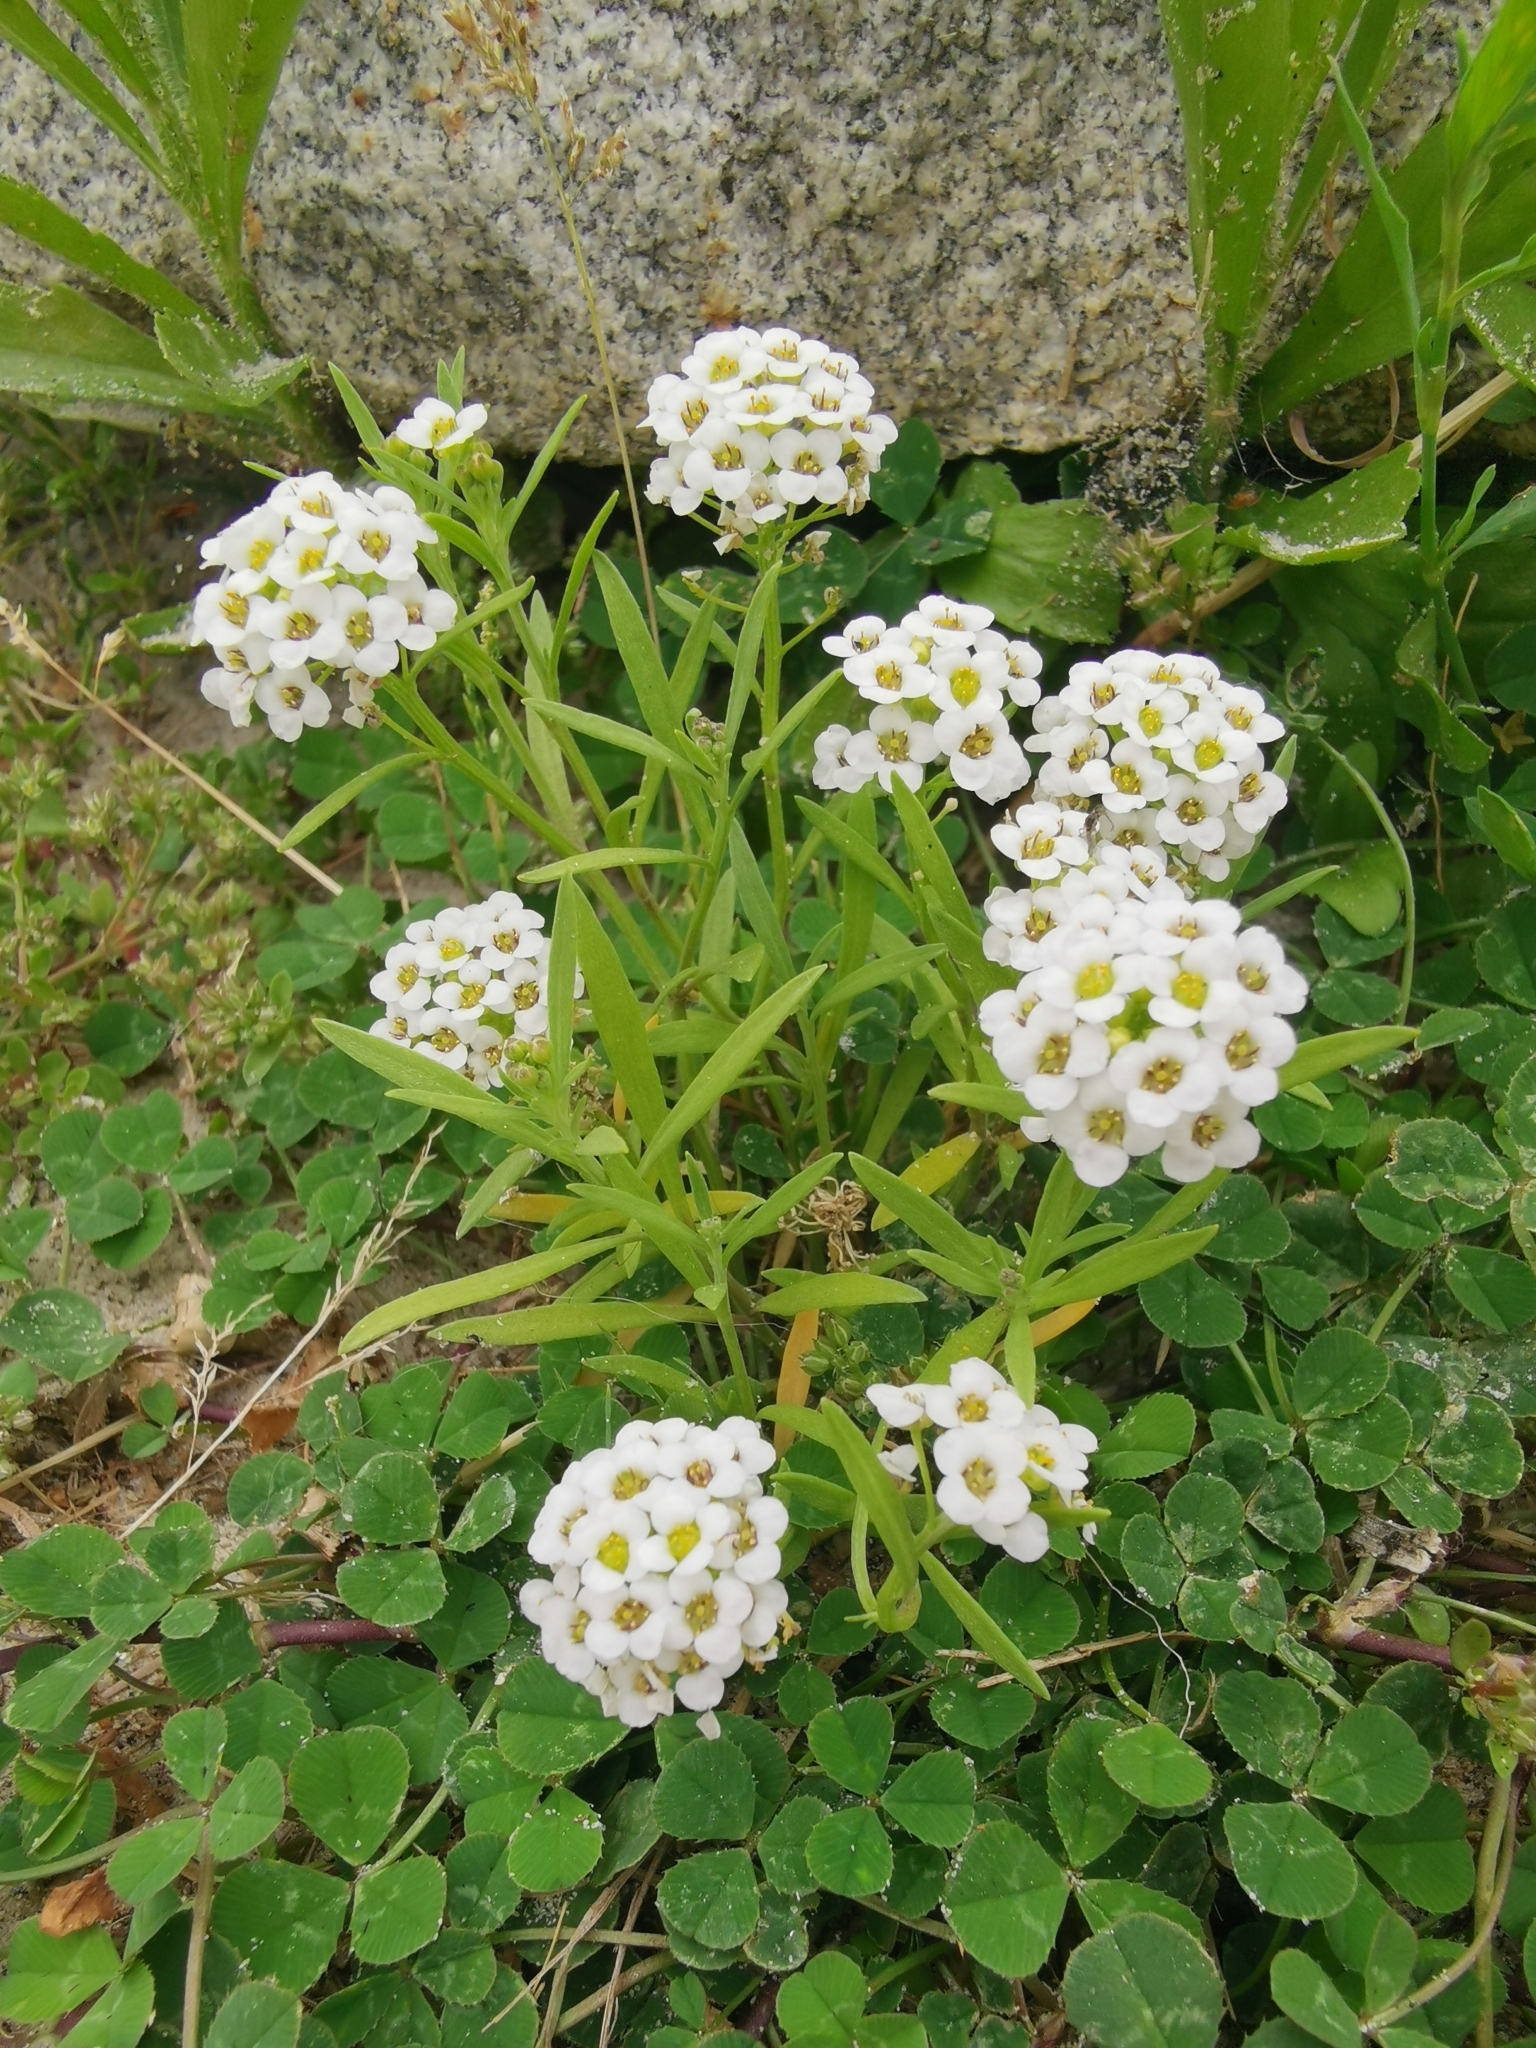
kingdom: Plantae
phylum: Tracheophyta
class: Magnoliopsida
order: Brassicales
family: Brassicaceae
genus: Lobularia
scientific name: Lobularia maritima
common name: Sweet alison
